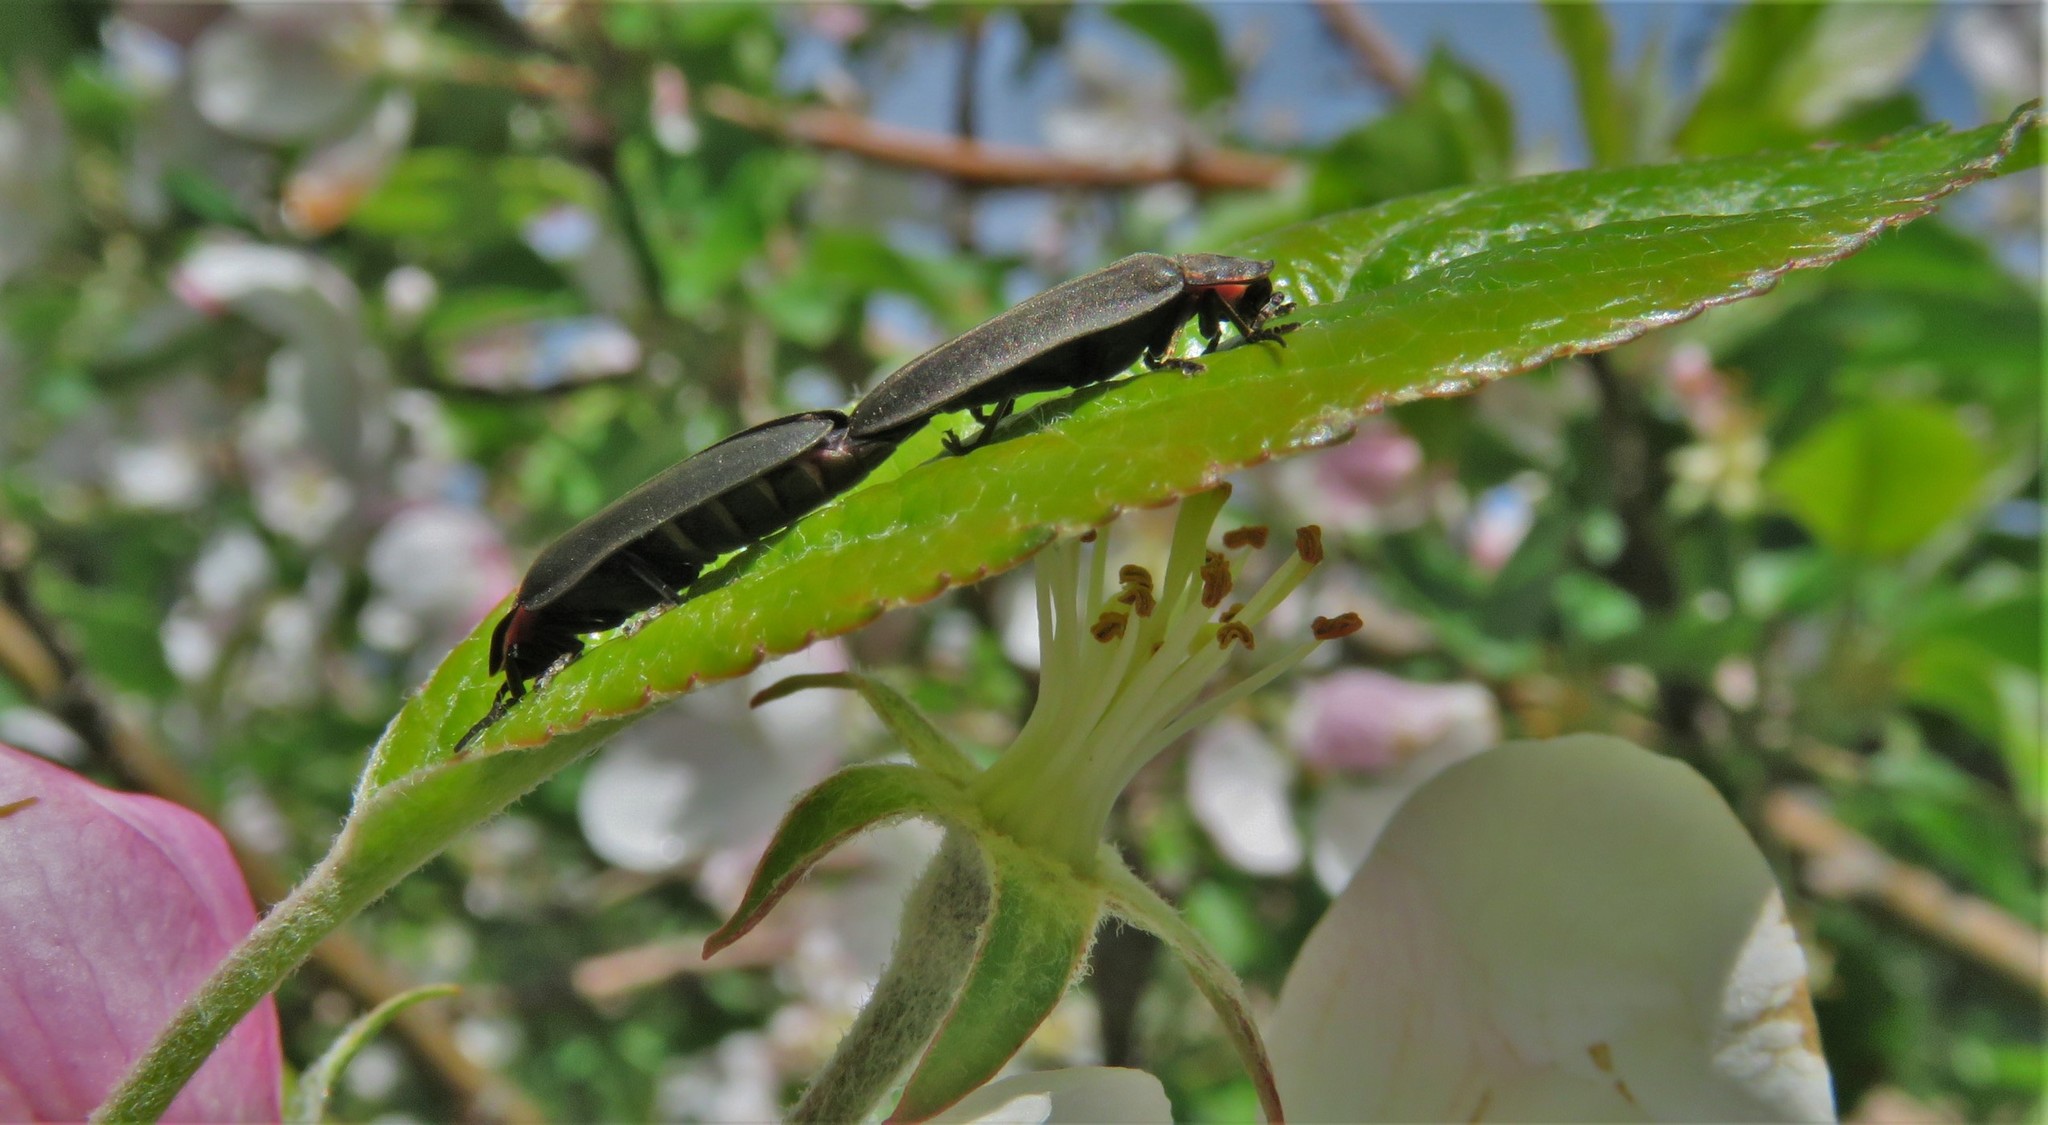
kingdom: Animalia
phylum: Arthropoda
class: Insecta
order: Coleoptera
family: Lampyridae
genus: Photinus
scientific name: Photinus corrusca
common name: Winter firefly
